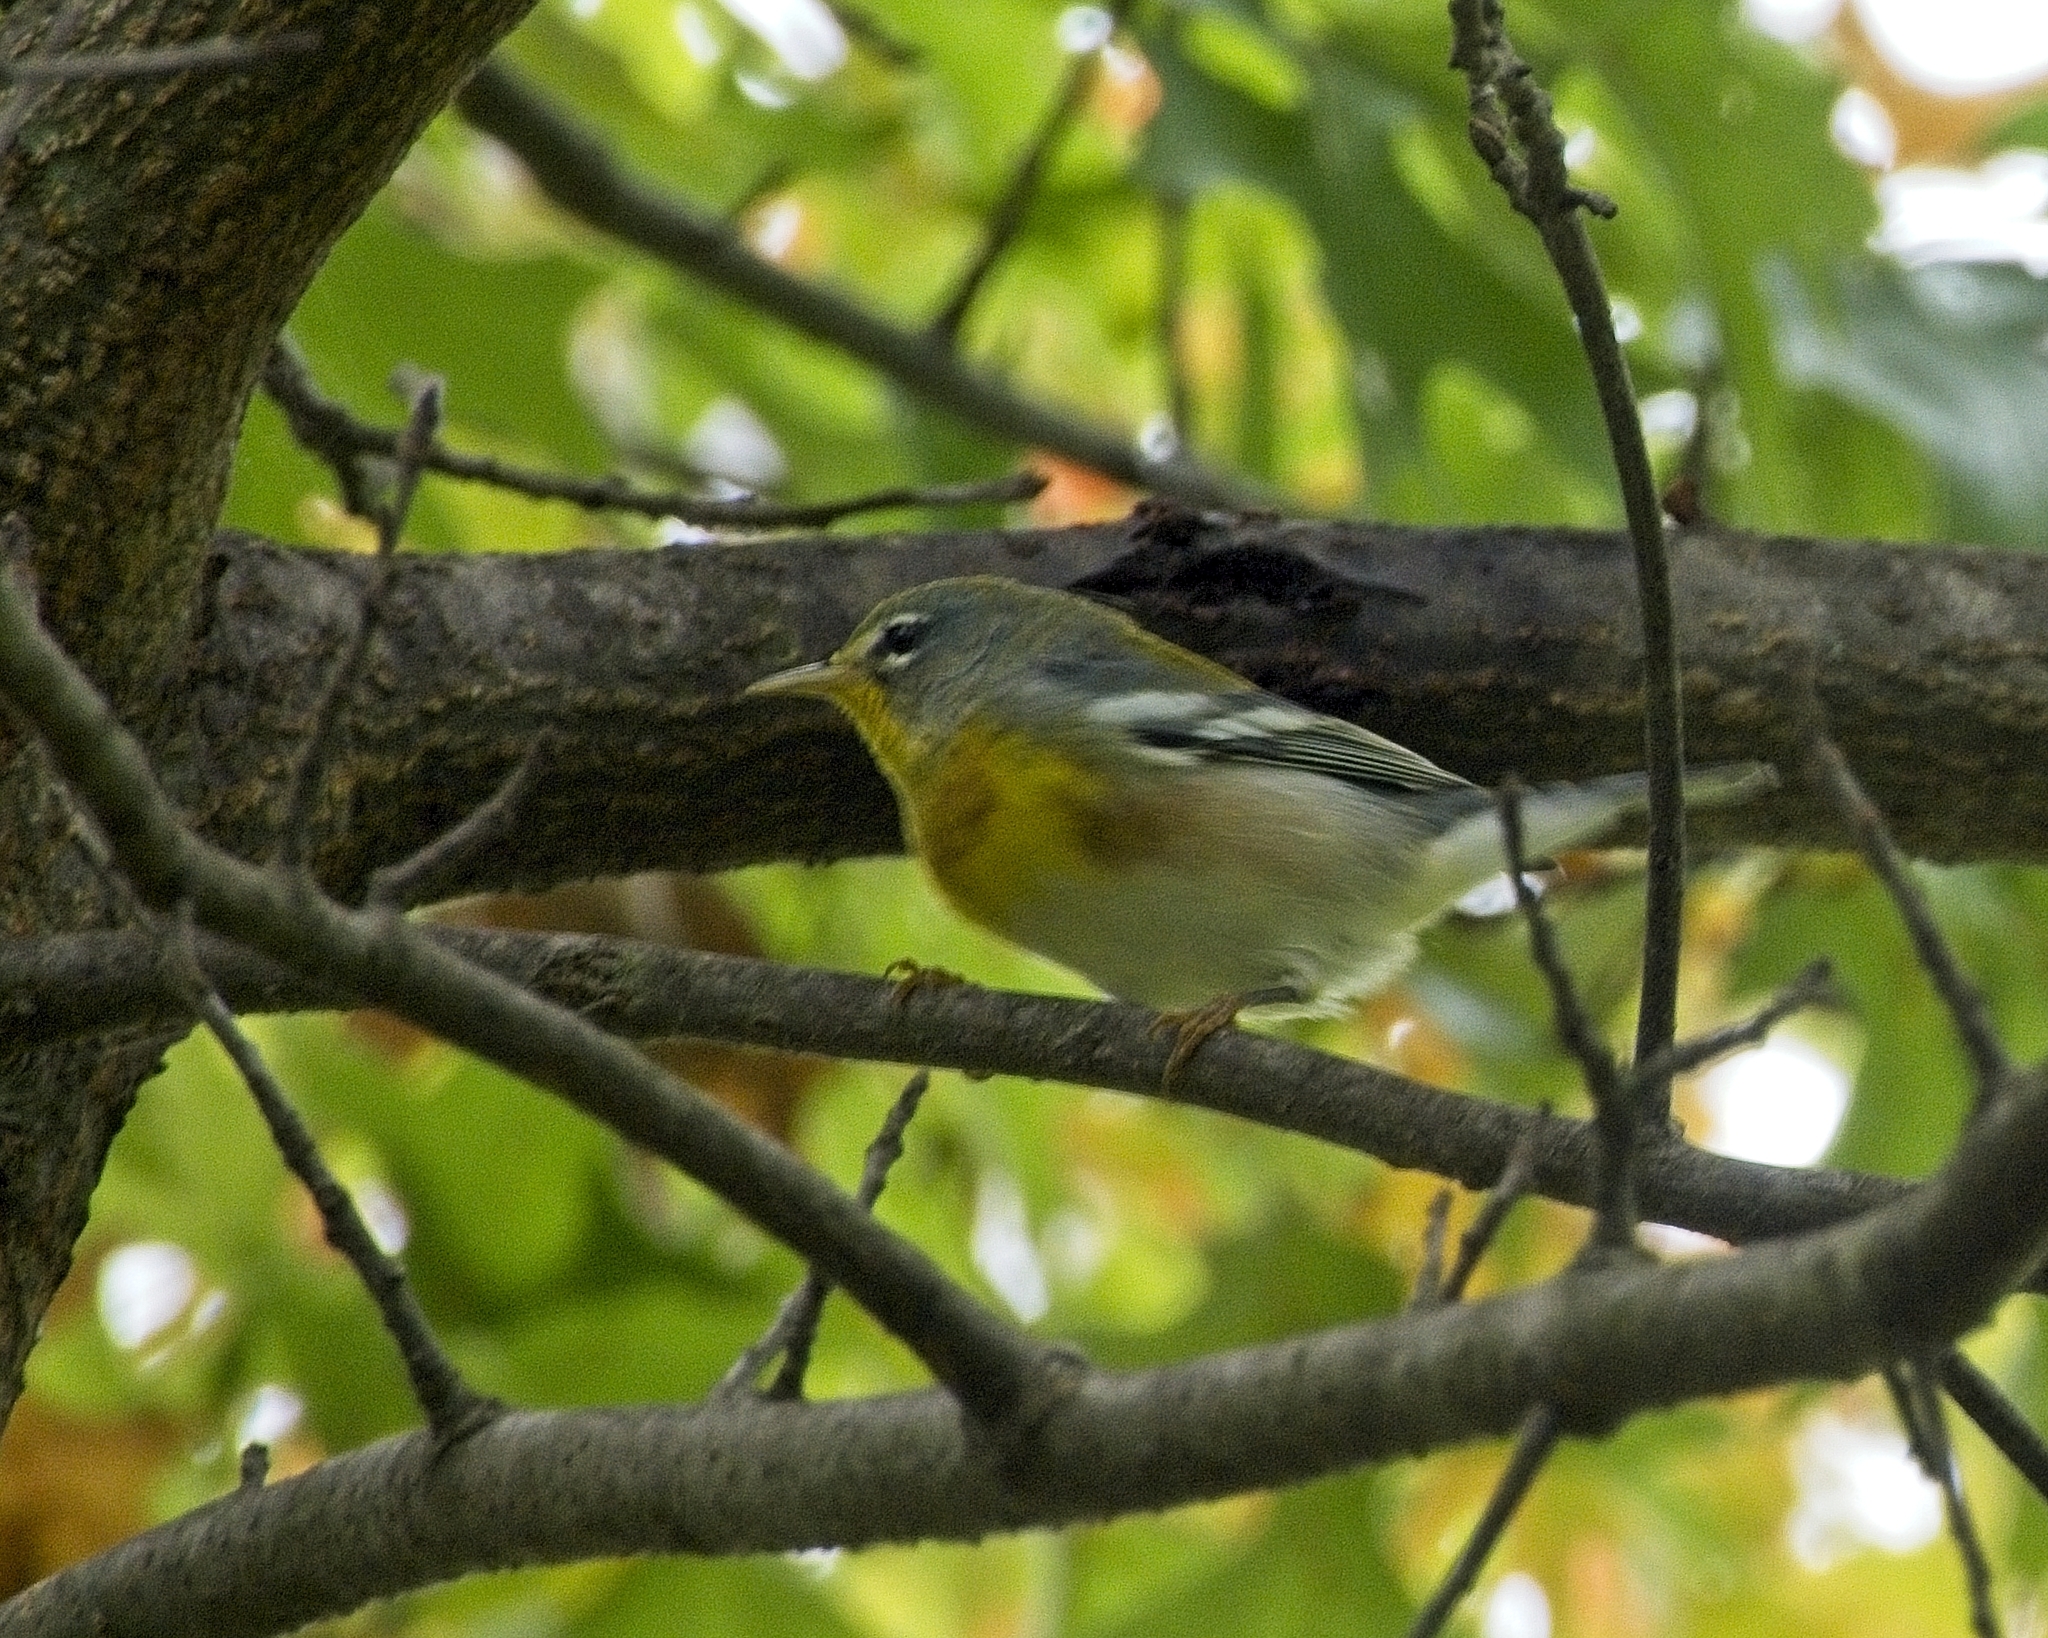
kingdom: Animalia
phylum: Chordata
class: Aves
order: Passeriformes
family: Parulidae
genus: Setophaga
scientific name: Setophaga americana
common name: Northern parula
